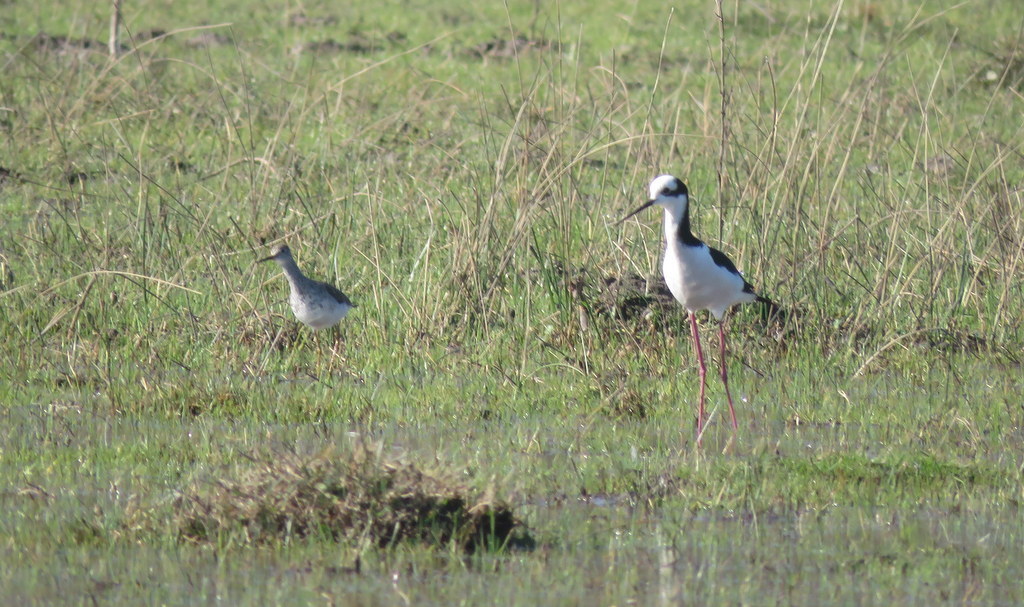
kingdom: Animalia
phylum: Chordata
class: Aves
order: Charadriiformes
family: Recurvirostridae
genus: Himantopus
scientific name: Himantopus mexicanus
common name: Black-necked stilt
